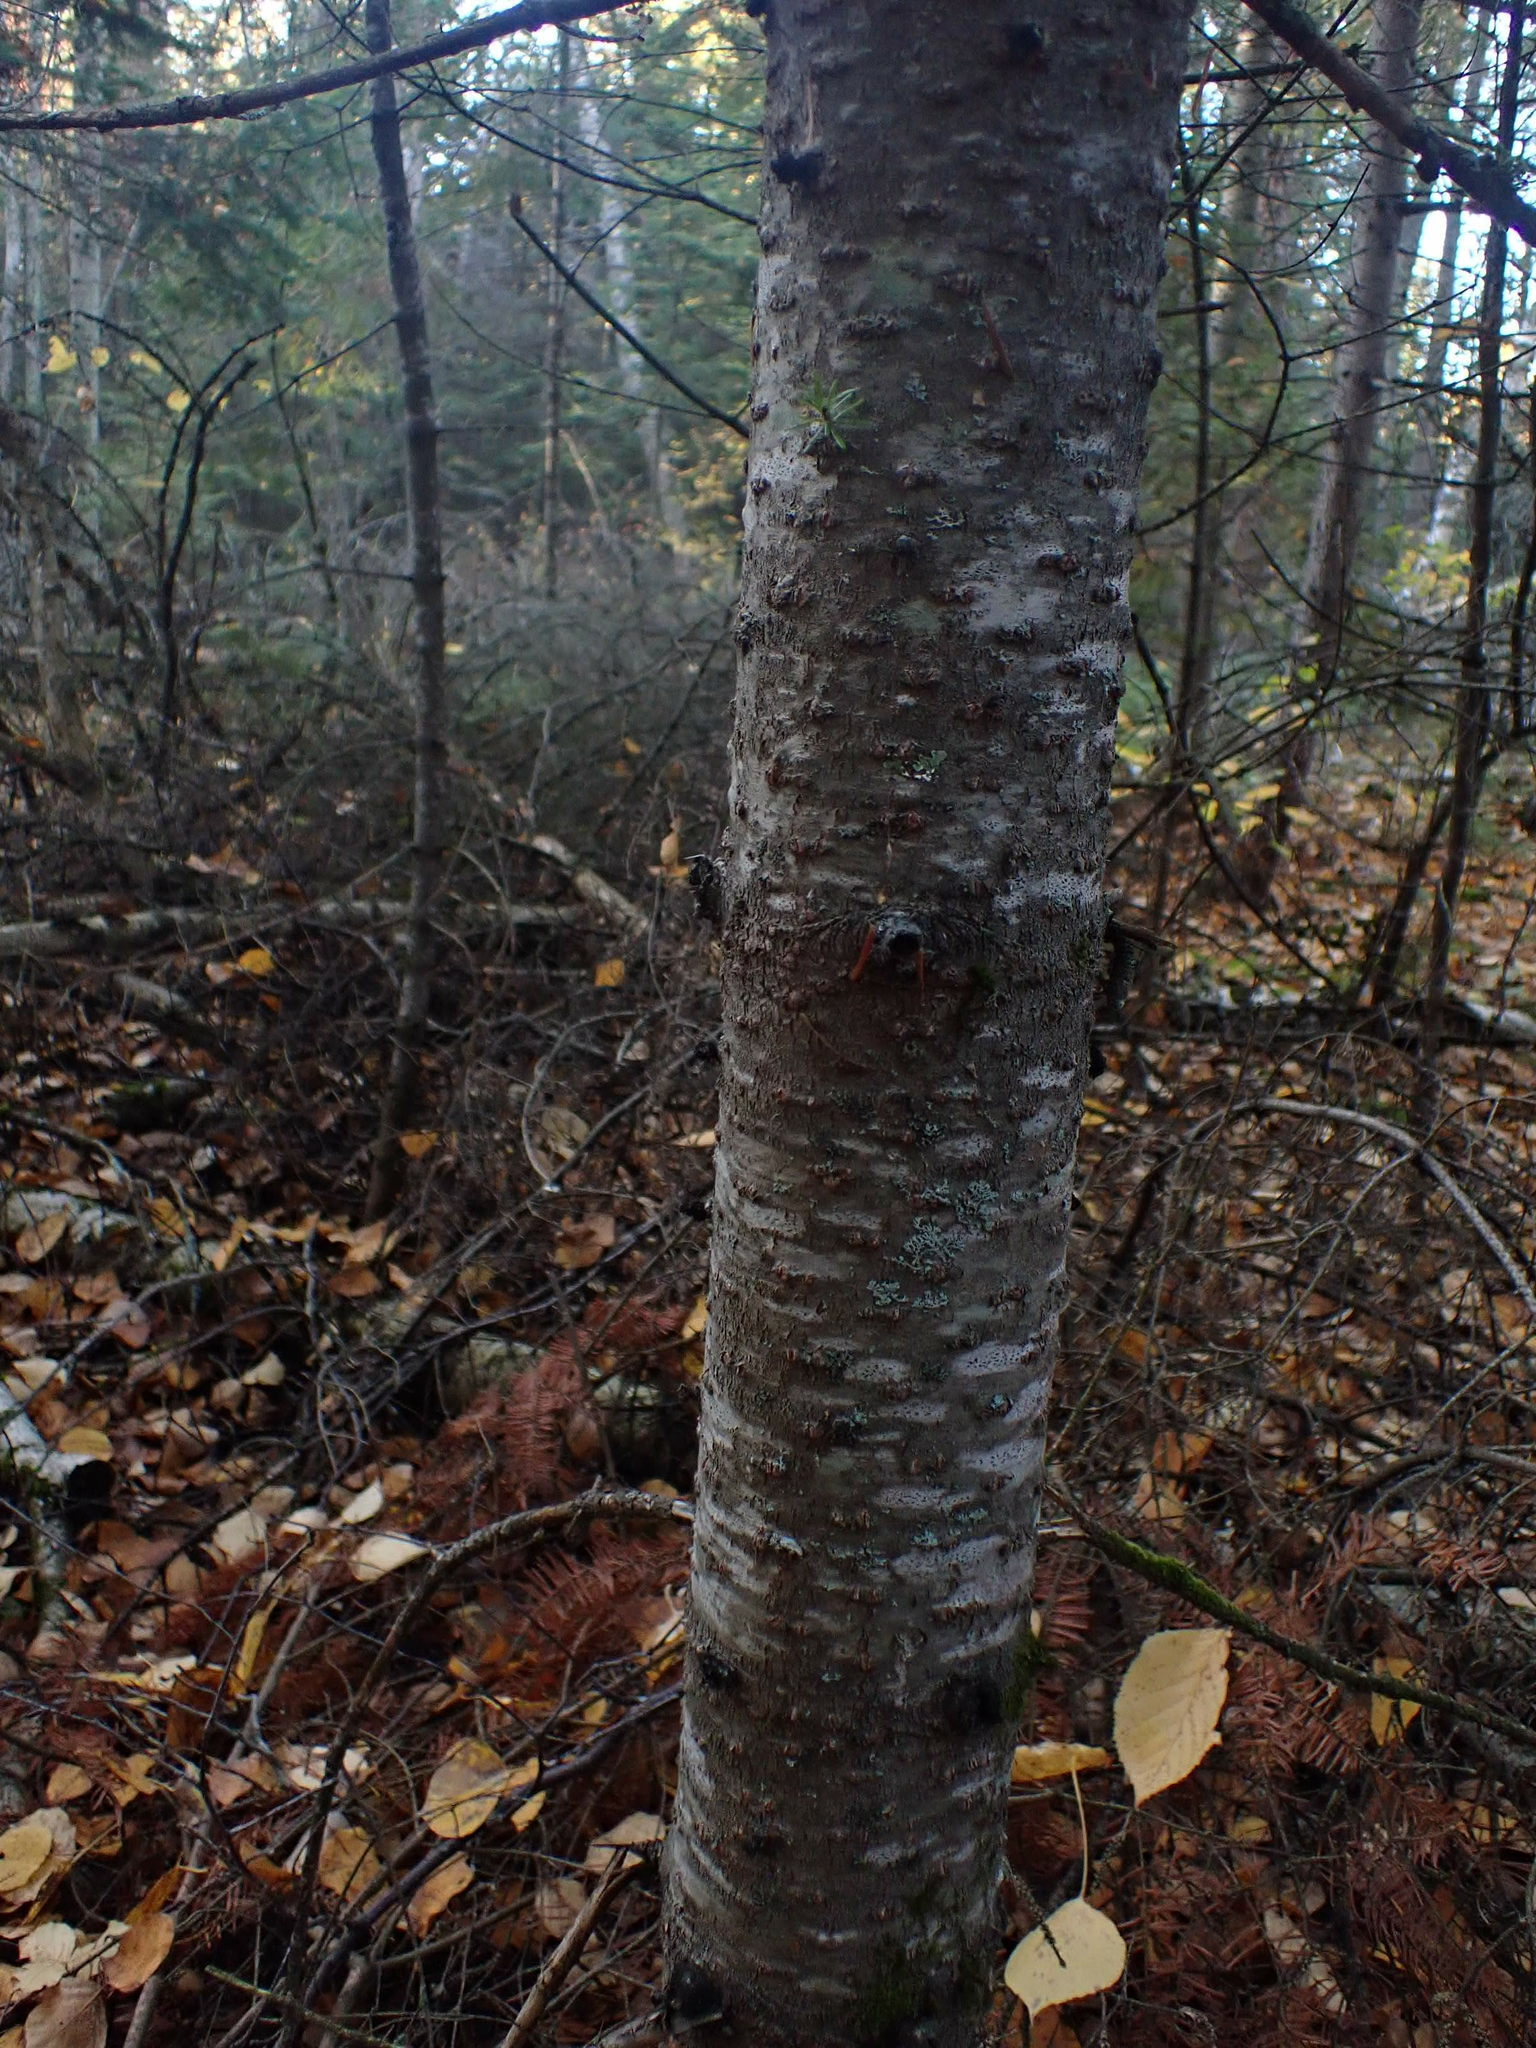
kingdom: Plantae
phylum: Tracheophyta
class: Pinopsida
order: Pinales
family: Pinaceae
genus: Abies
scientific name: Abies balsamea
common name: Balsam fir
